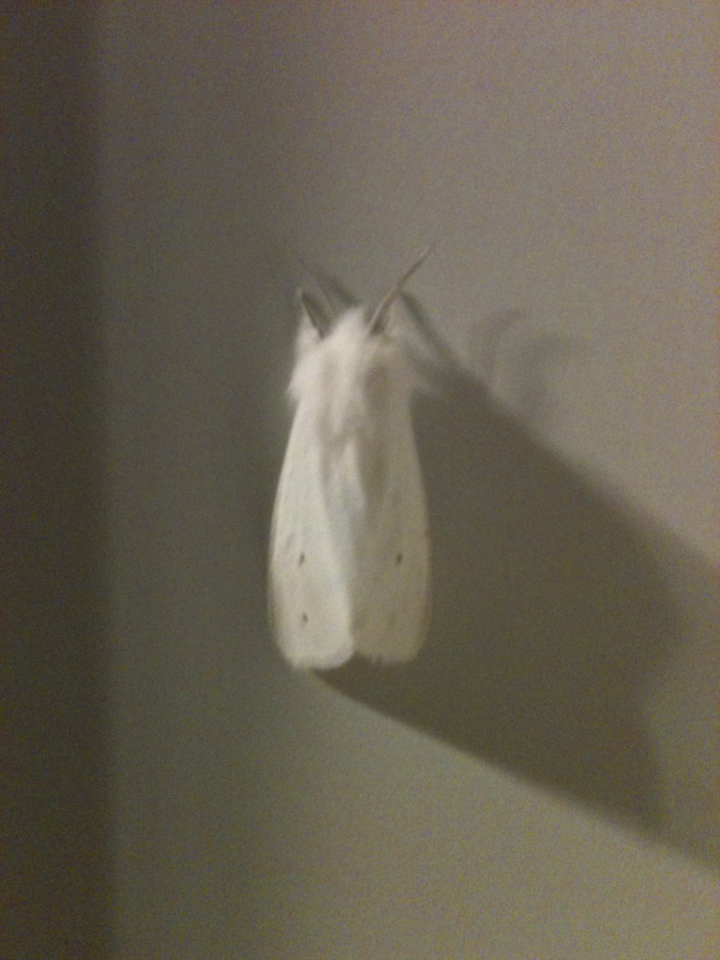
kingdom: Animalia
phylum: Arthropoda
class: Insecta
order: Lepidoptera
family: Erebidae
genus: Spilosoma
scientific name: Spilosoma virginica
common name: Virginia tiger moth
